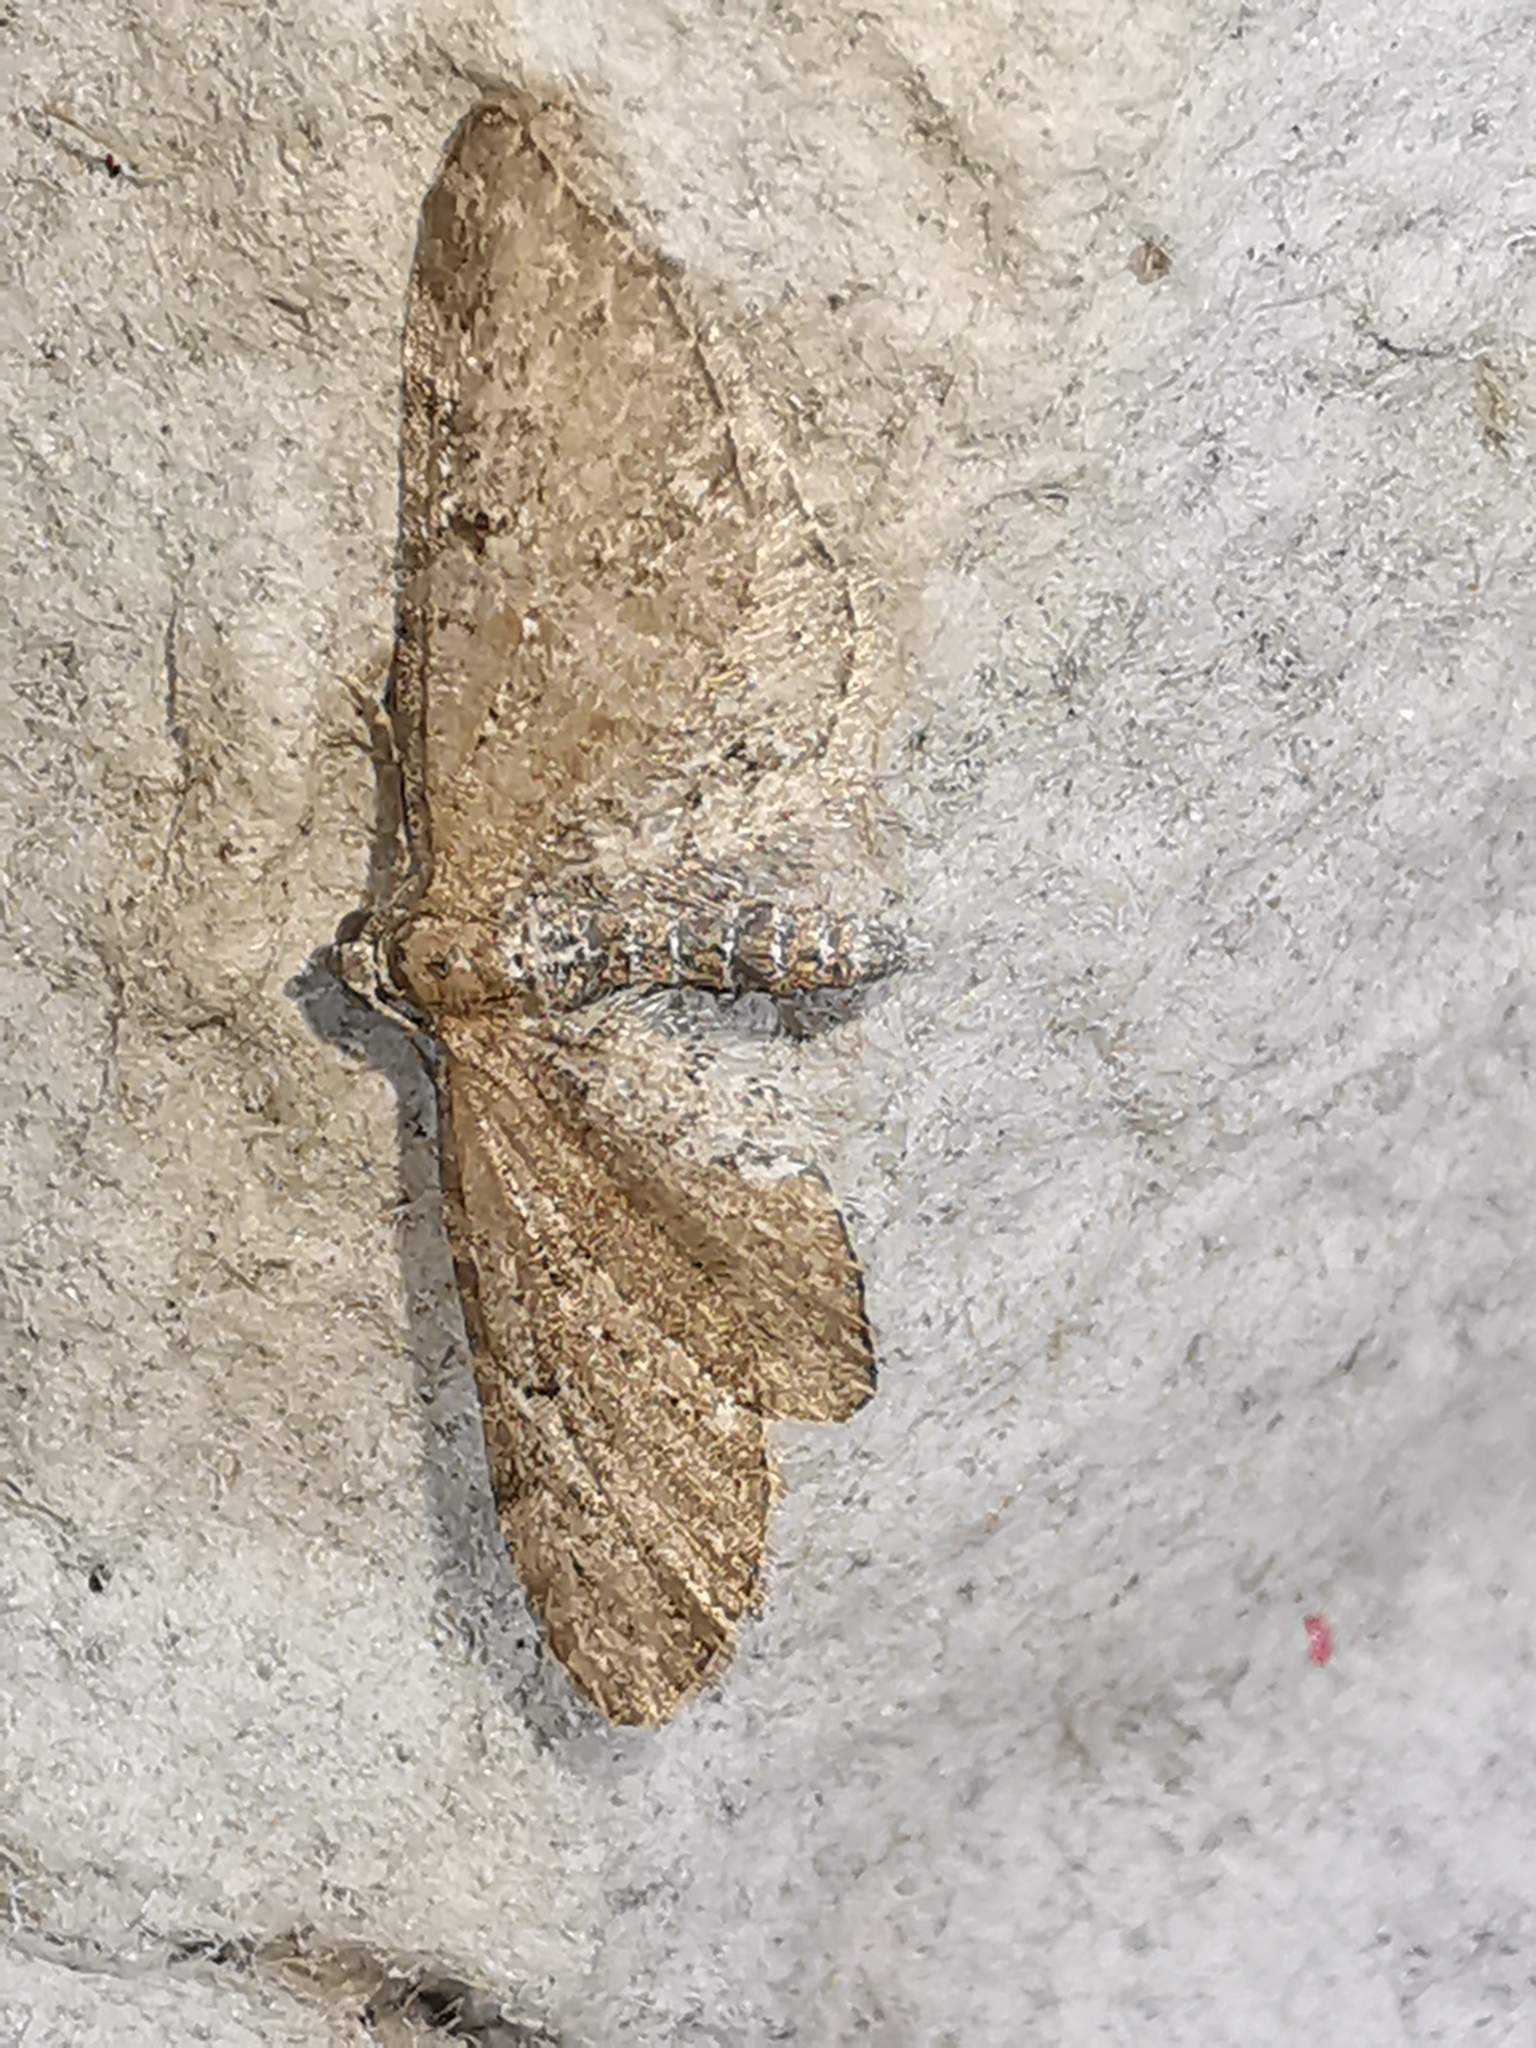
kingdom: Animalia
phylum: Arthropoda
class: Insecta
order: Lepidoptera
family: Geometridae
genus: Eupithecia
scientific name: Eupithecia vulgata
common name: Common pug
